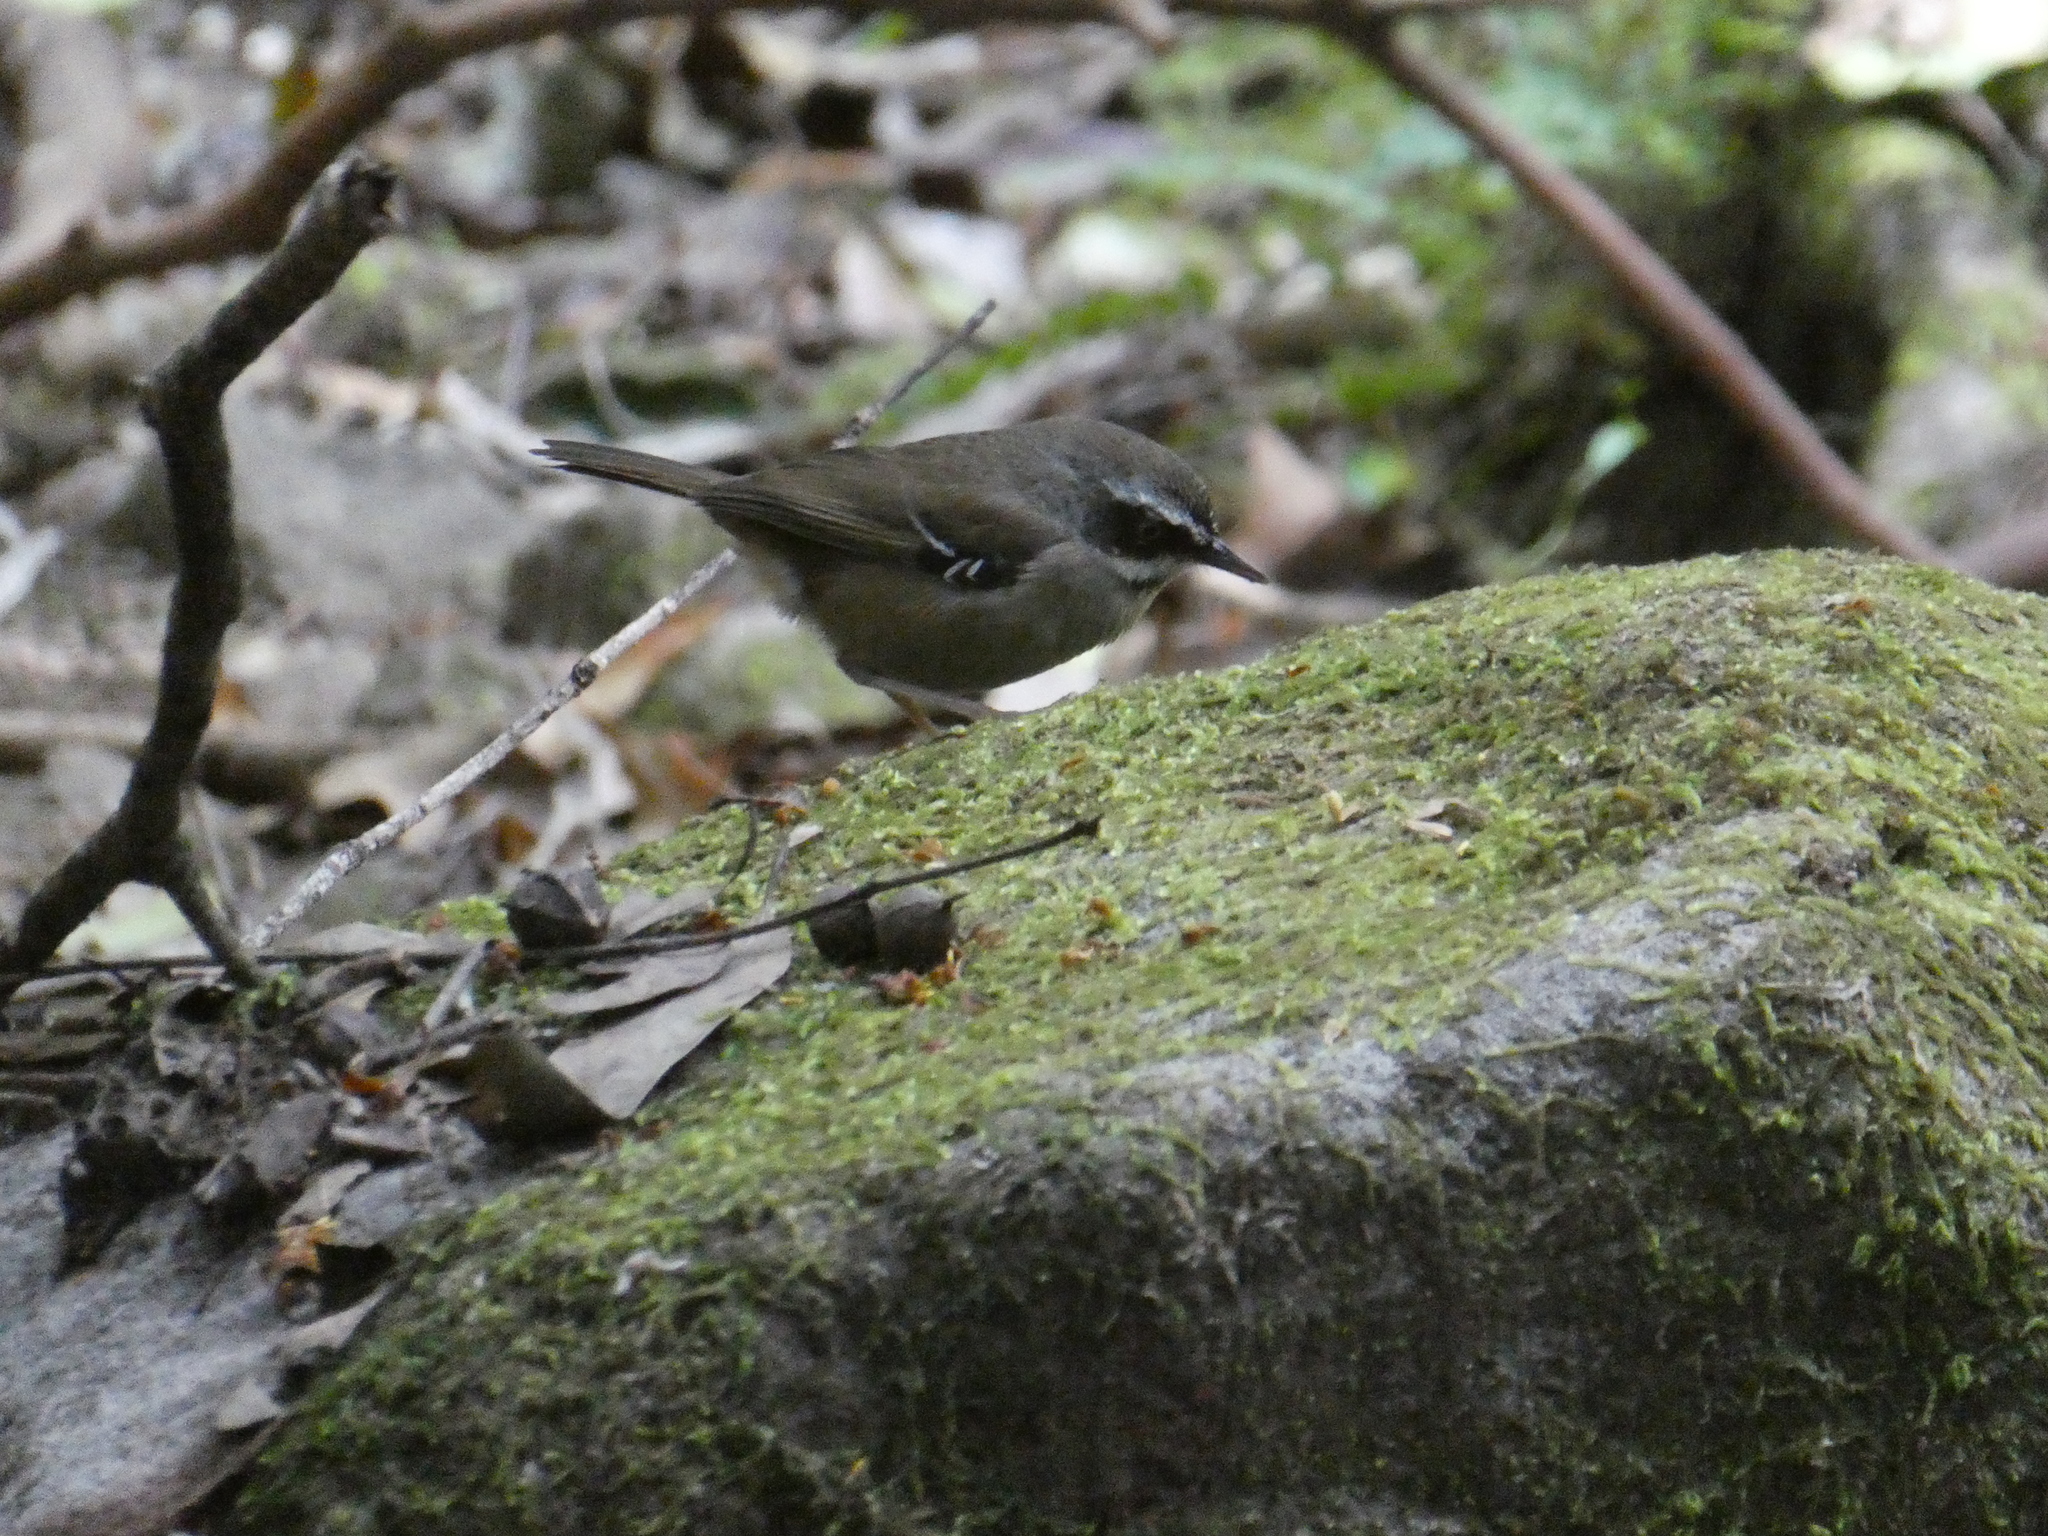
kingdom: Animalia
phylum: Chordata
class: Aves
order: Passeriformes
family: Acanthizidae
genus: Sericornis
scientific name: Sericornis frontalis
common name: White-browed scrubwren
